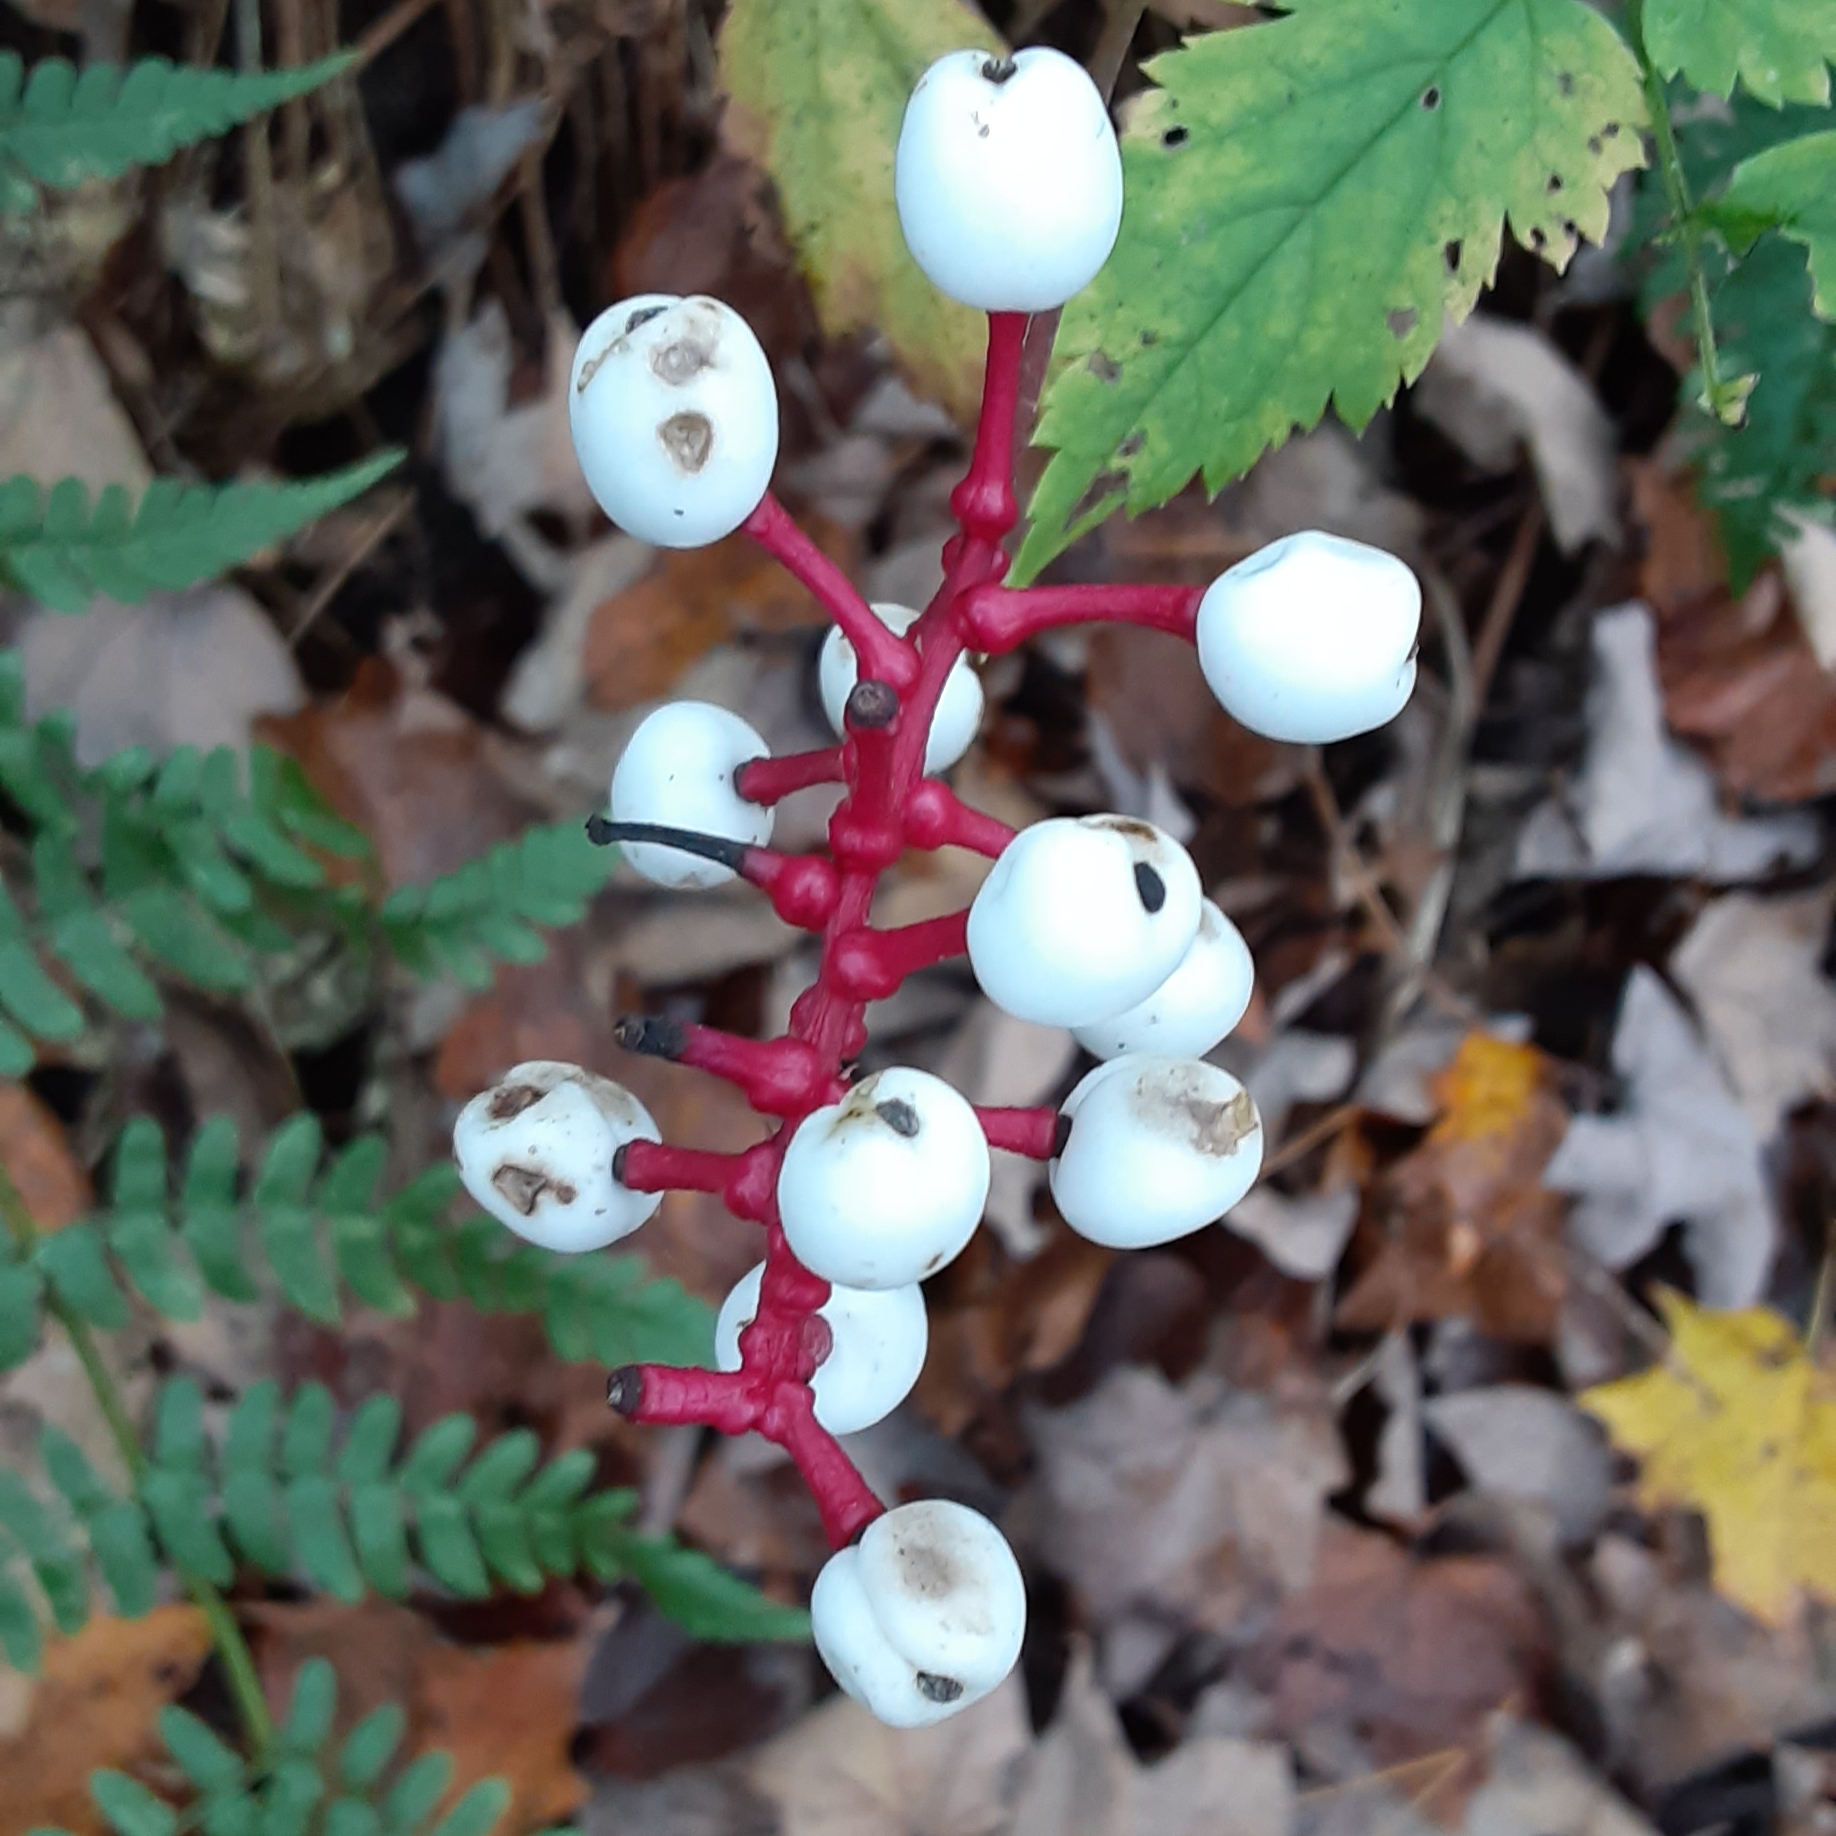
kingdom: Plantae
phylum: Tracheophyta
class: Magnoliopsida
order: Ranunculales
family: Ranunculaceae
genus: Actaea
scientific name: Actaea pachypoda
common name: Doll's-eyes
